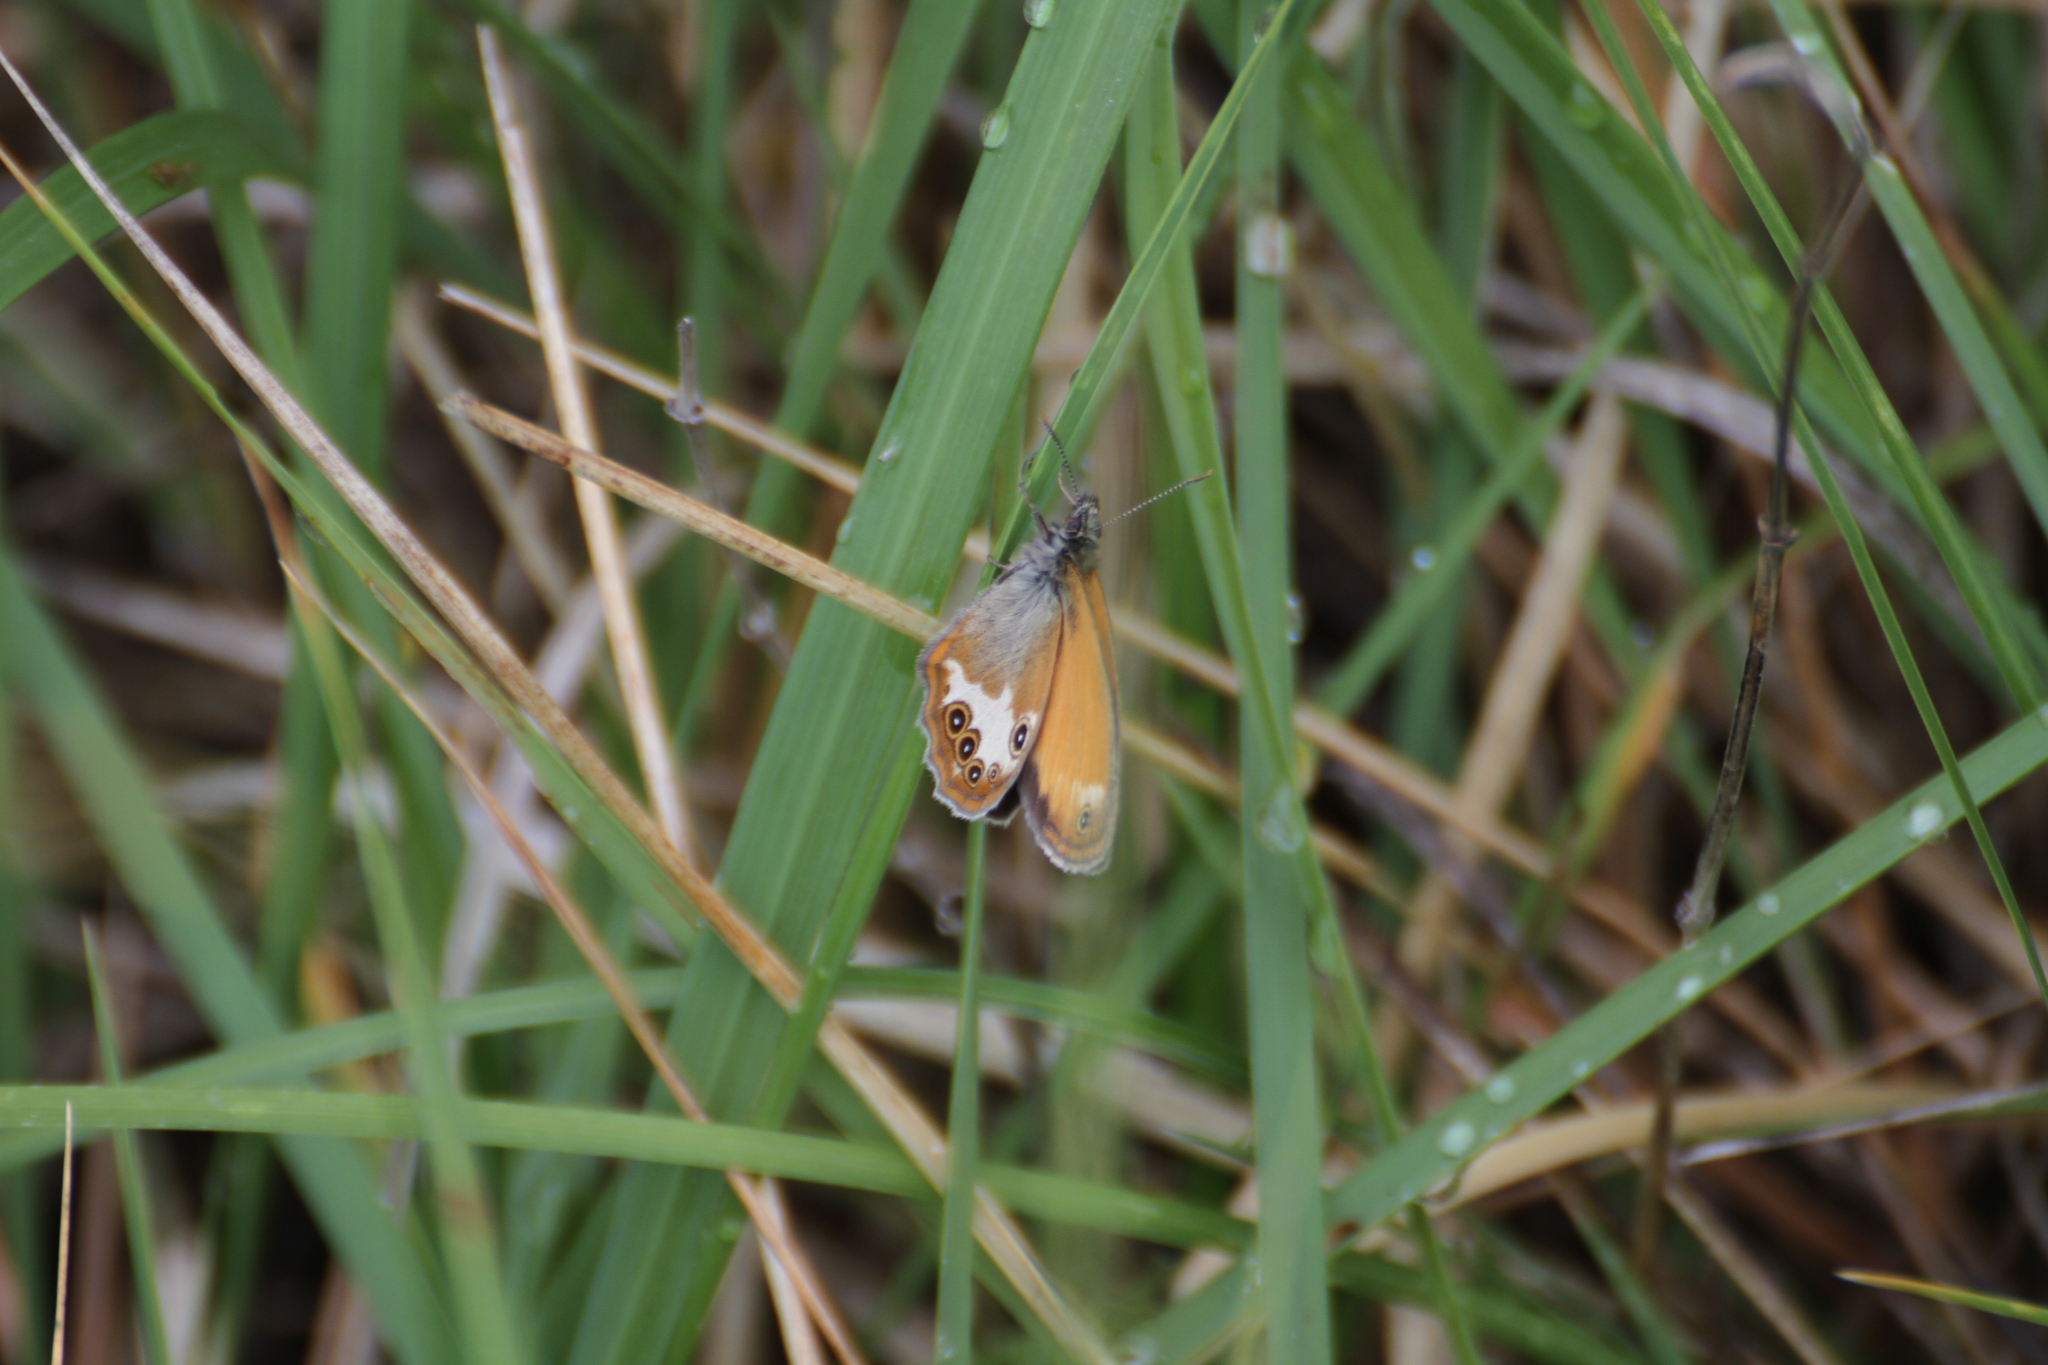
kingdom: Animalia
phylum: Arthropoda
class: Insecta
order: Lepidoptera
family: Nymphalidae
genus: Coenonympha
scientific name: Coenonympha arcania
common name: Pearly heath
